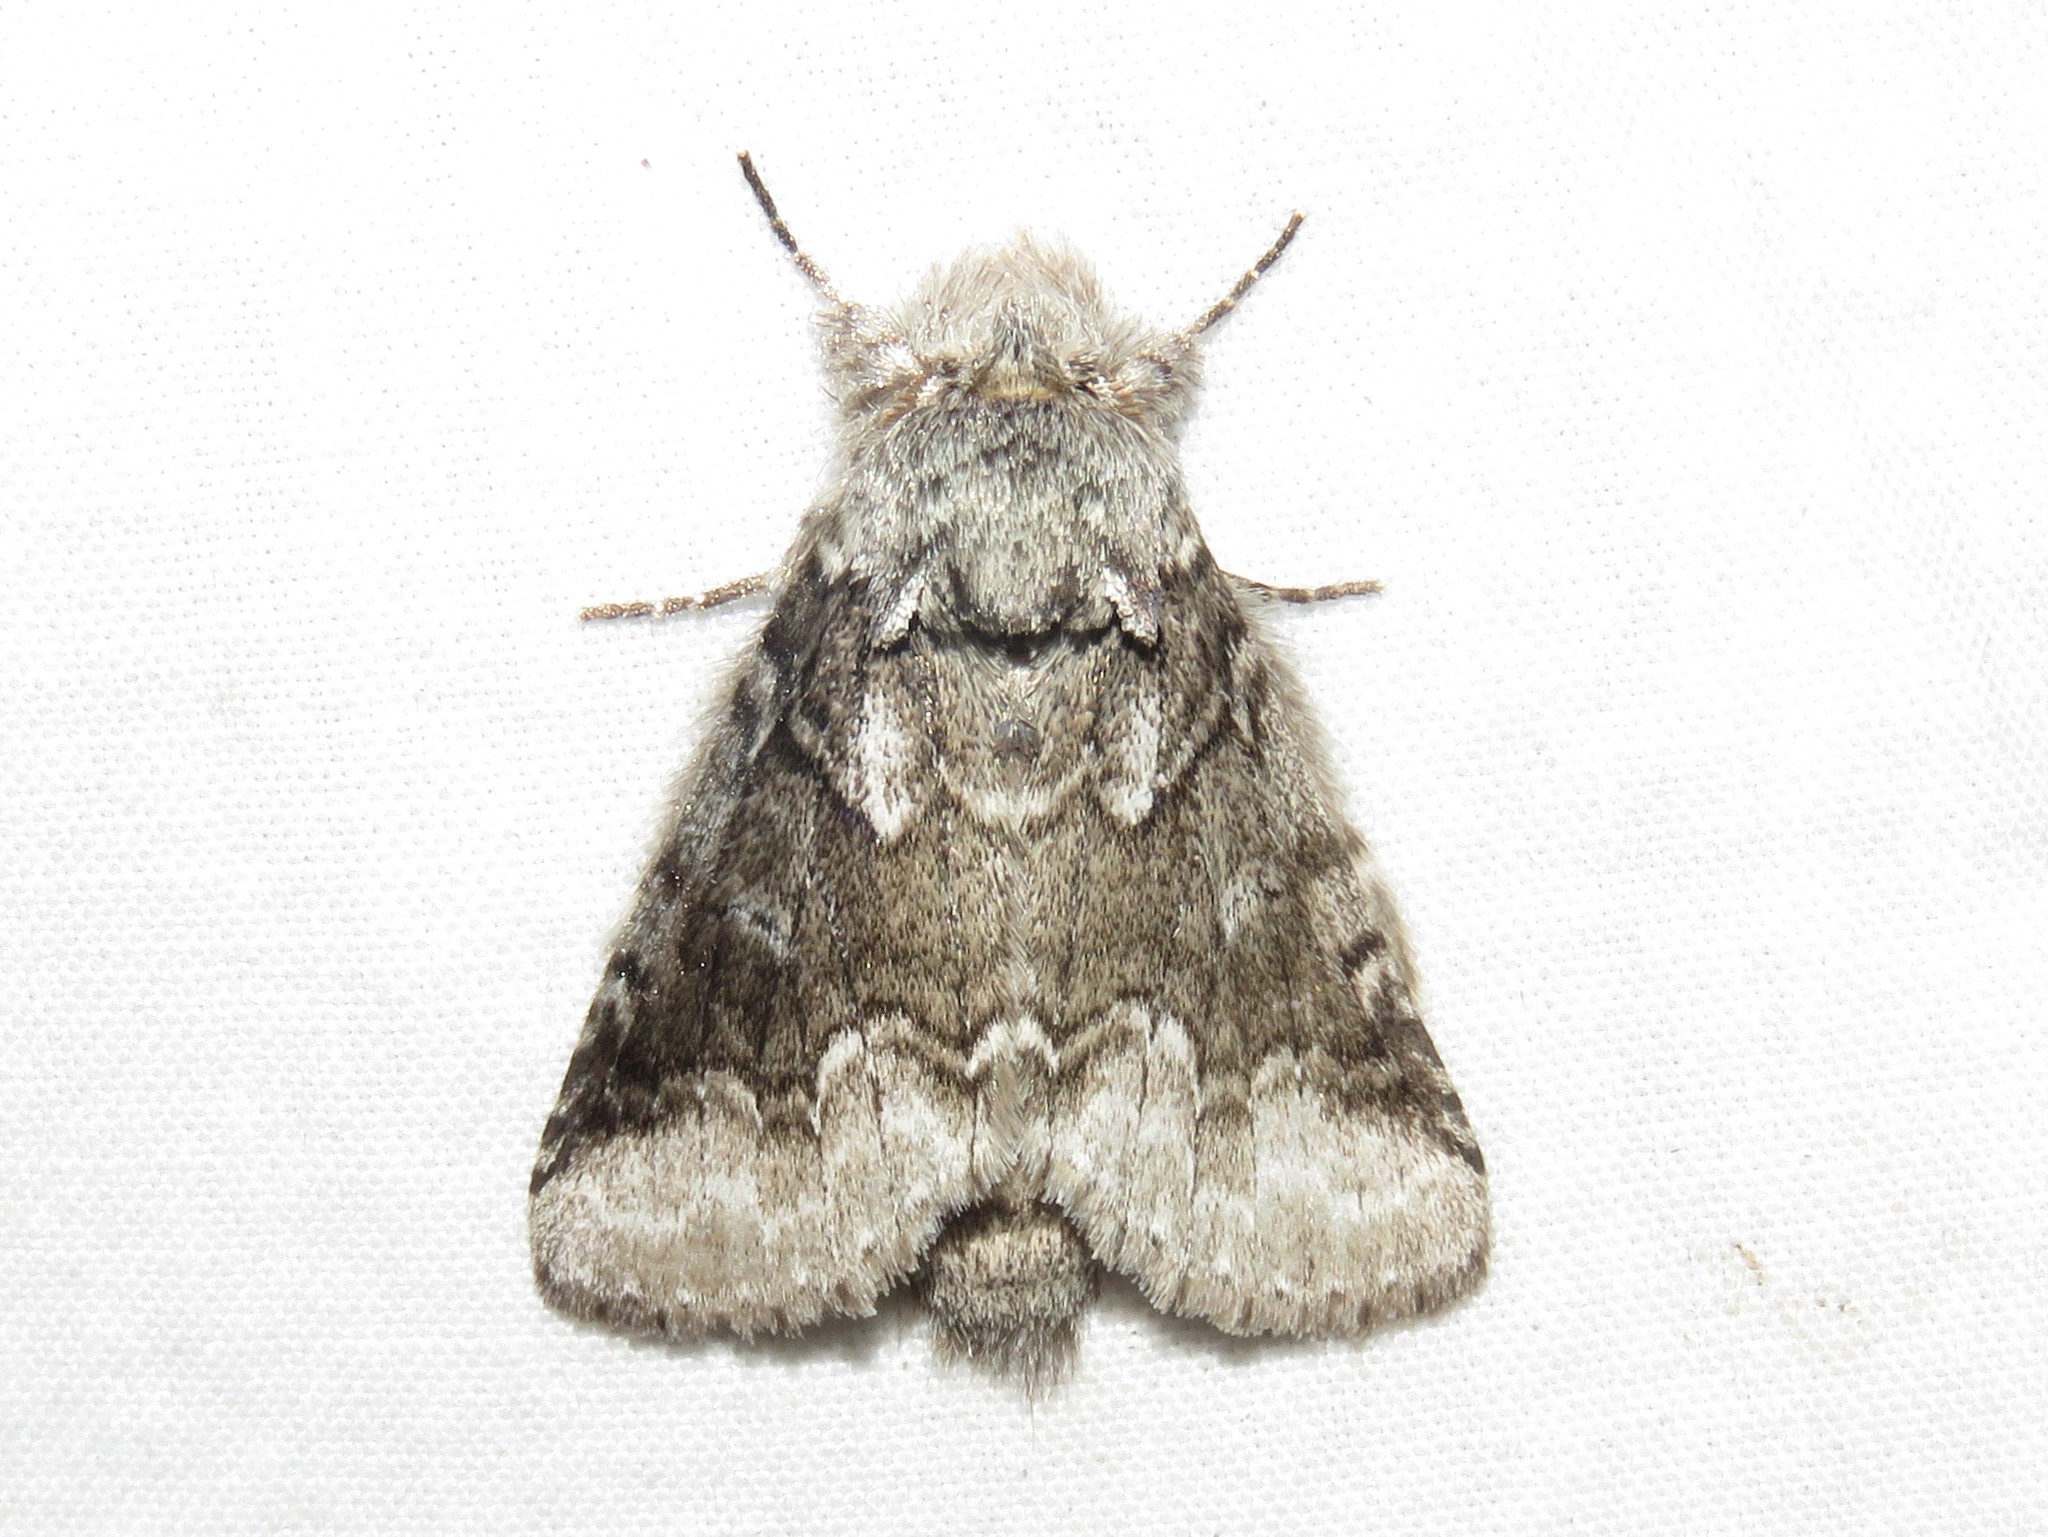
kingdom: Animalia
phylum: Arthropoda
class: Insecta
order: Lepidoptera
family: Notodontidae
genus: Lochmaeus
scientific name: Lochmaeus bilineata
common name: Double-lined prominent
